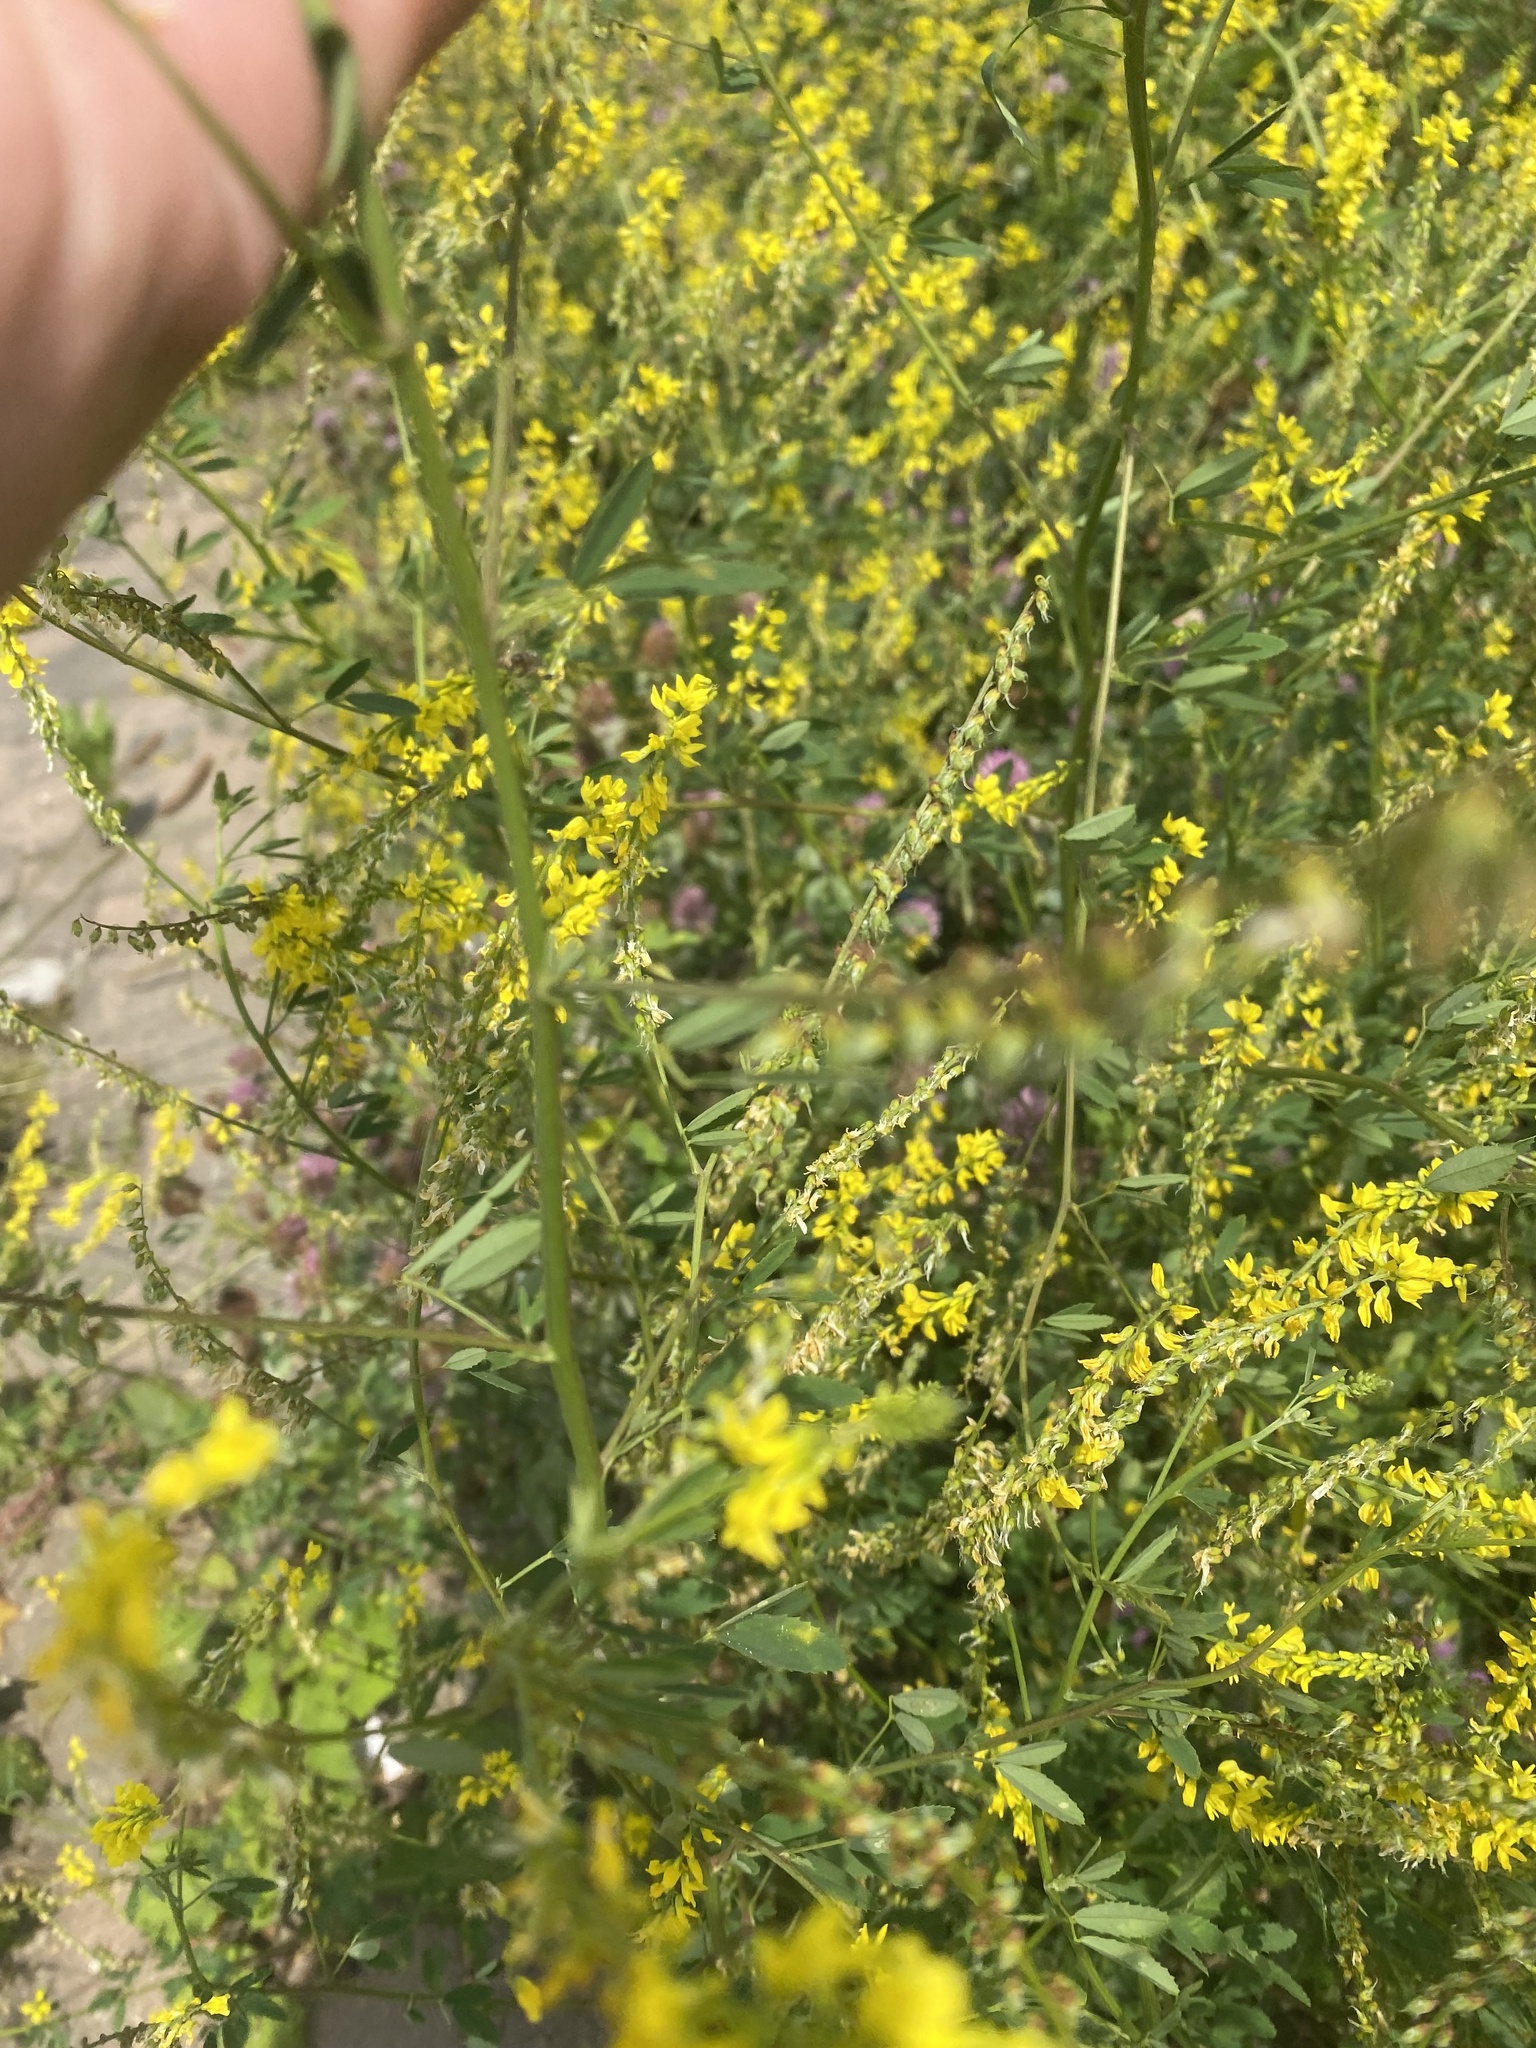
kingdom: Plantae
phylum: Tracheophyta
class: Magnoliopsida
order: Fabales
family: Fabaceae
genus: Melilotus
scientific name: Melilotus officinalis
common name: Sweetclover
